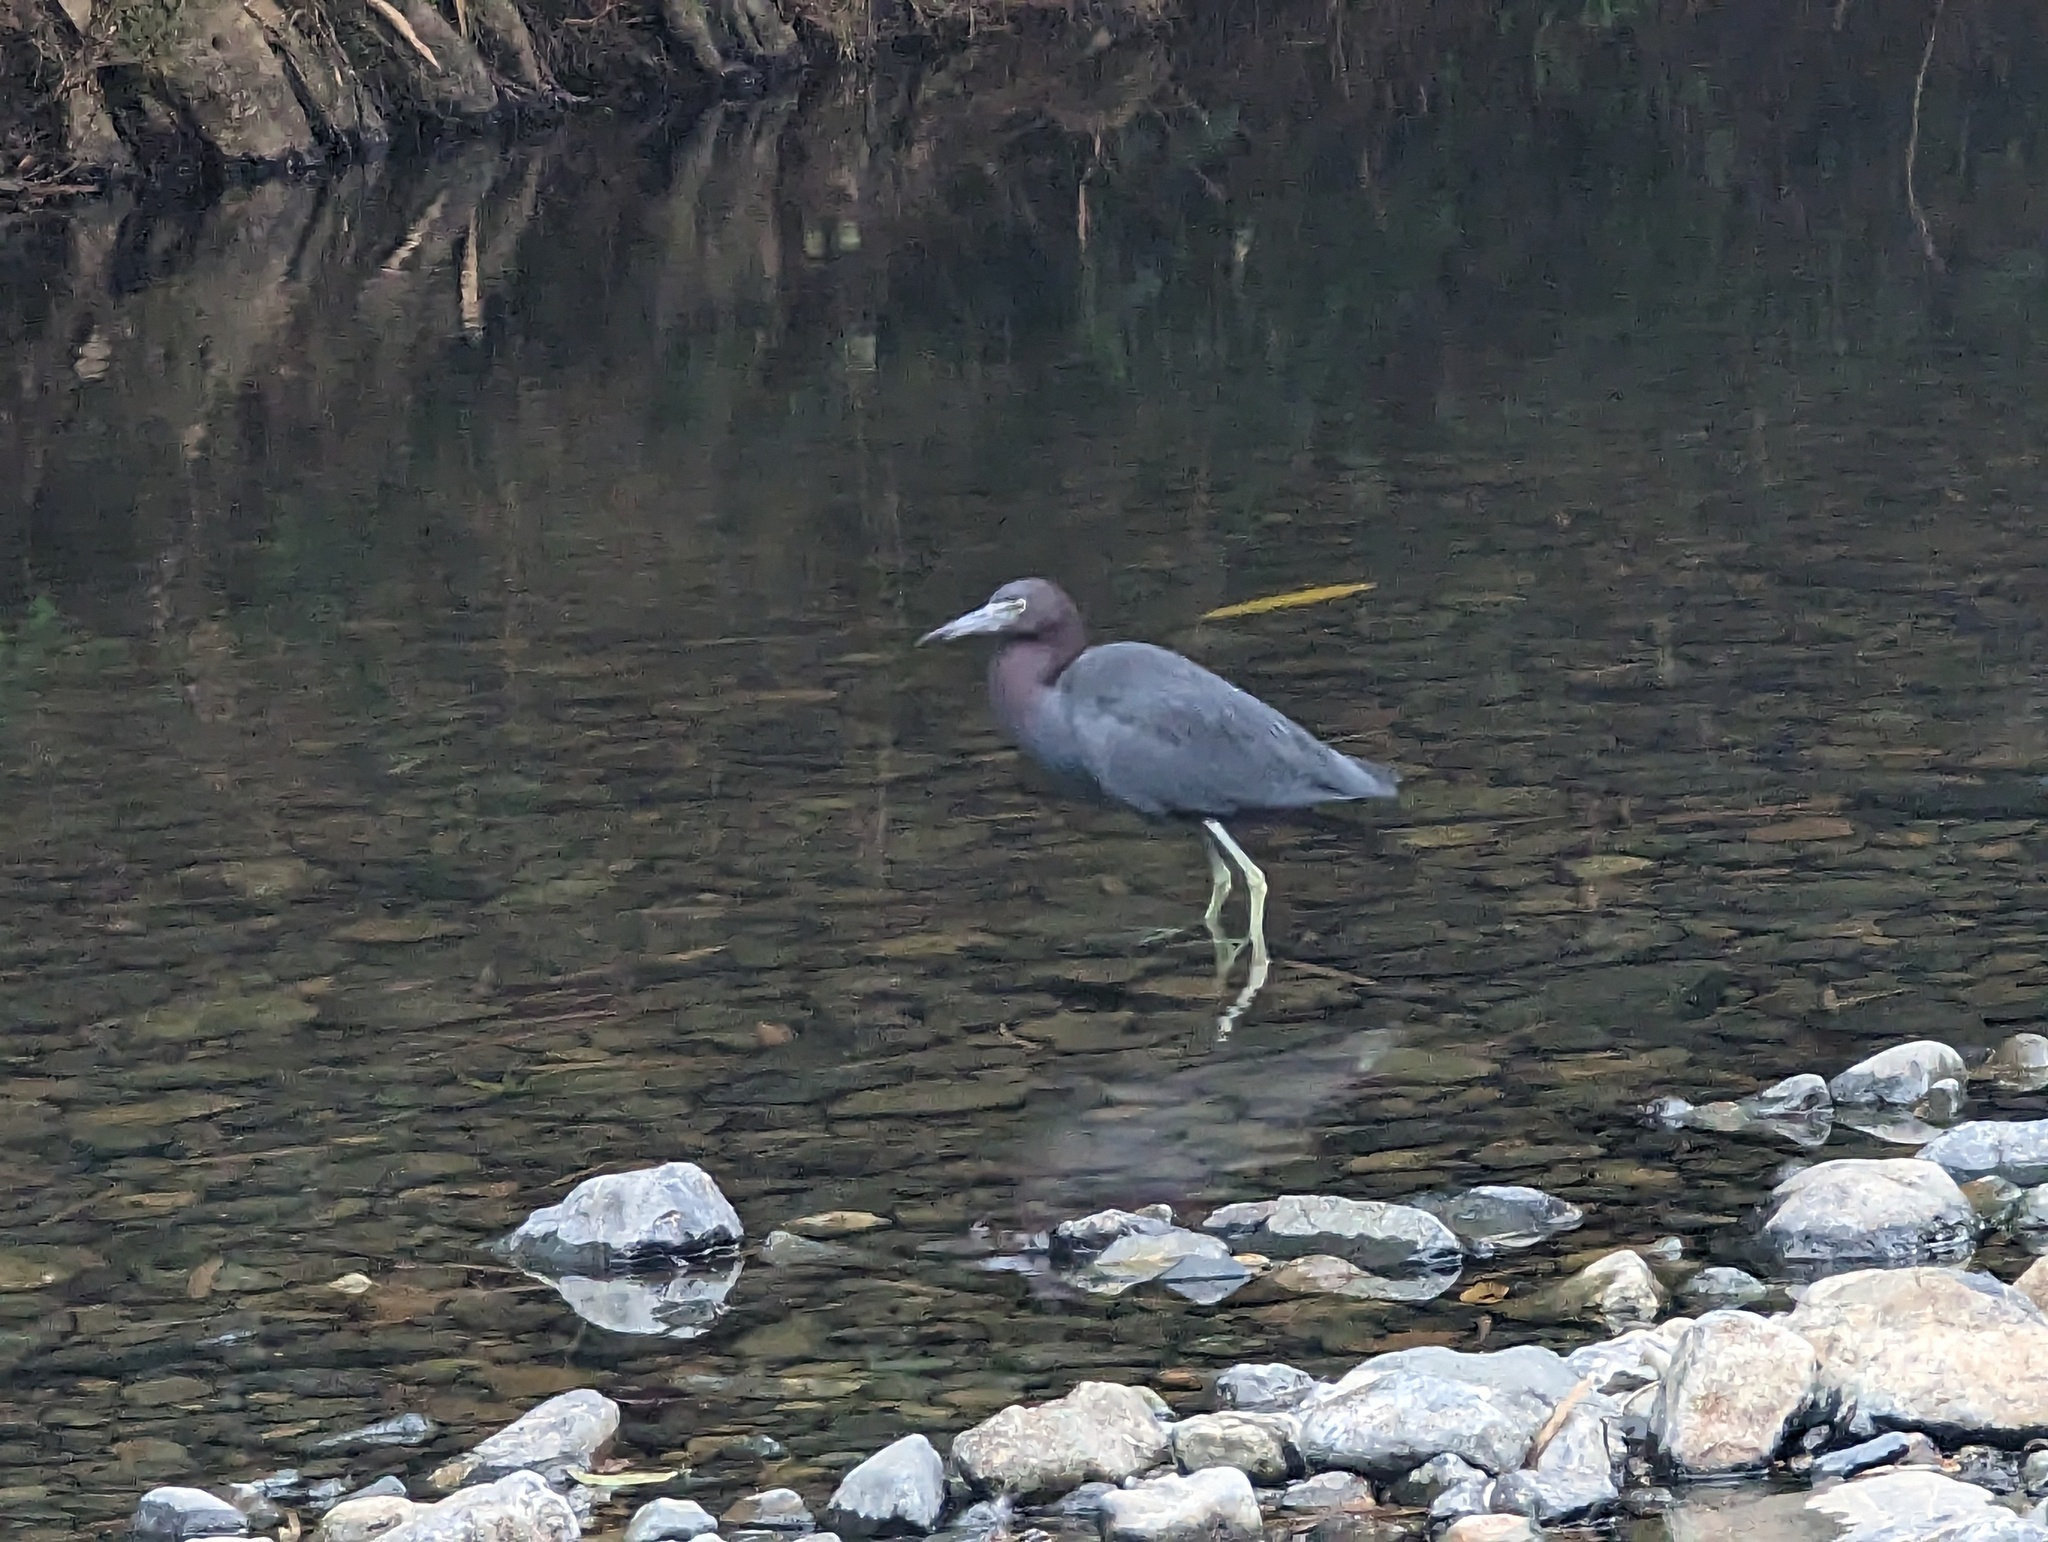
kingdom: Animalia
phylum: Chordata
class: Aves
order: Pelecaniformes
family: Ardeidae
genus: Egretta
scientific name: Egretta caerulea
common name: Little blue heron
